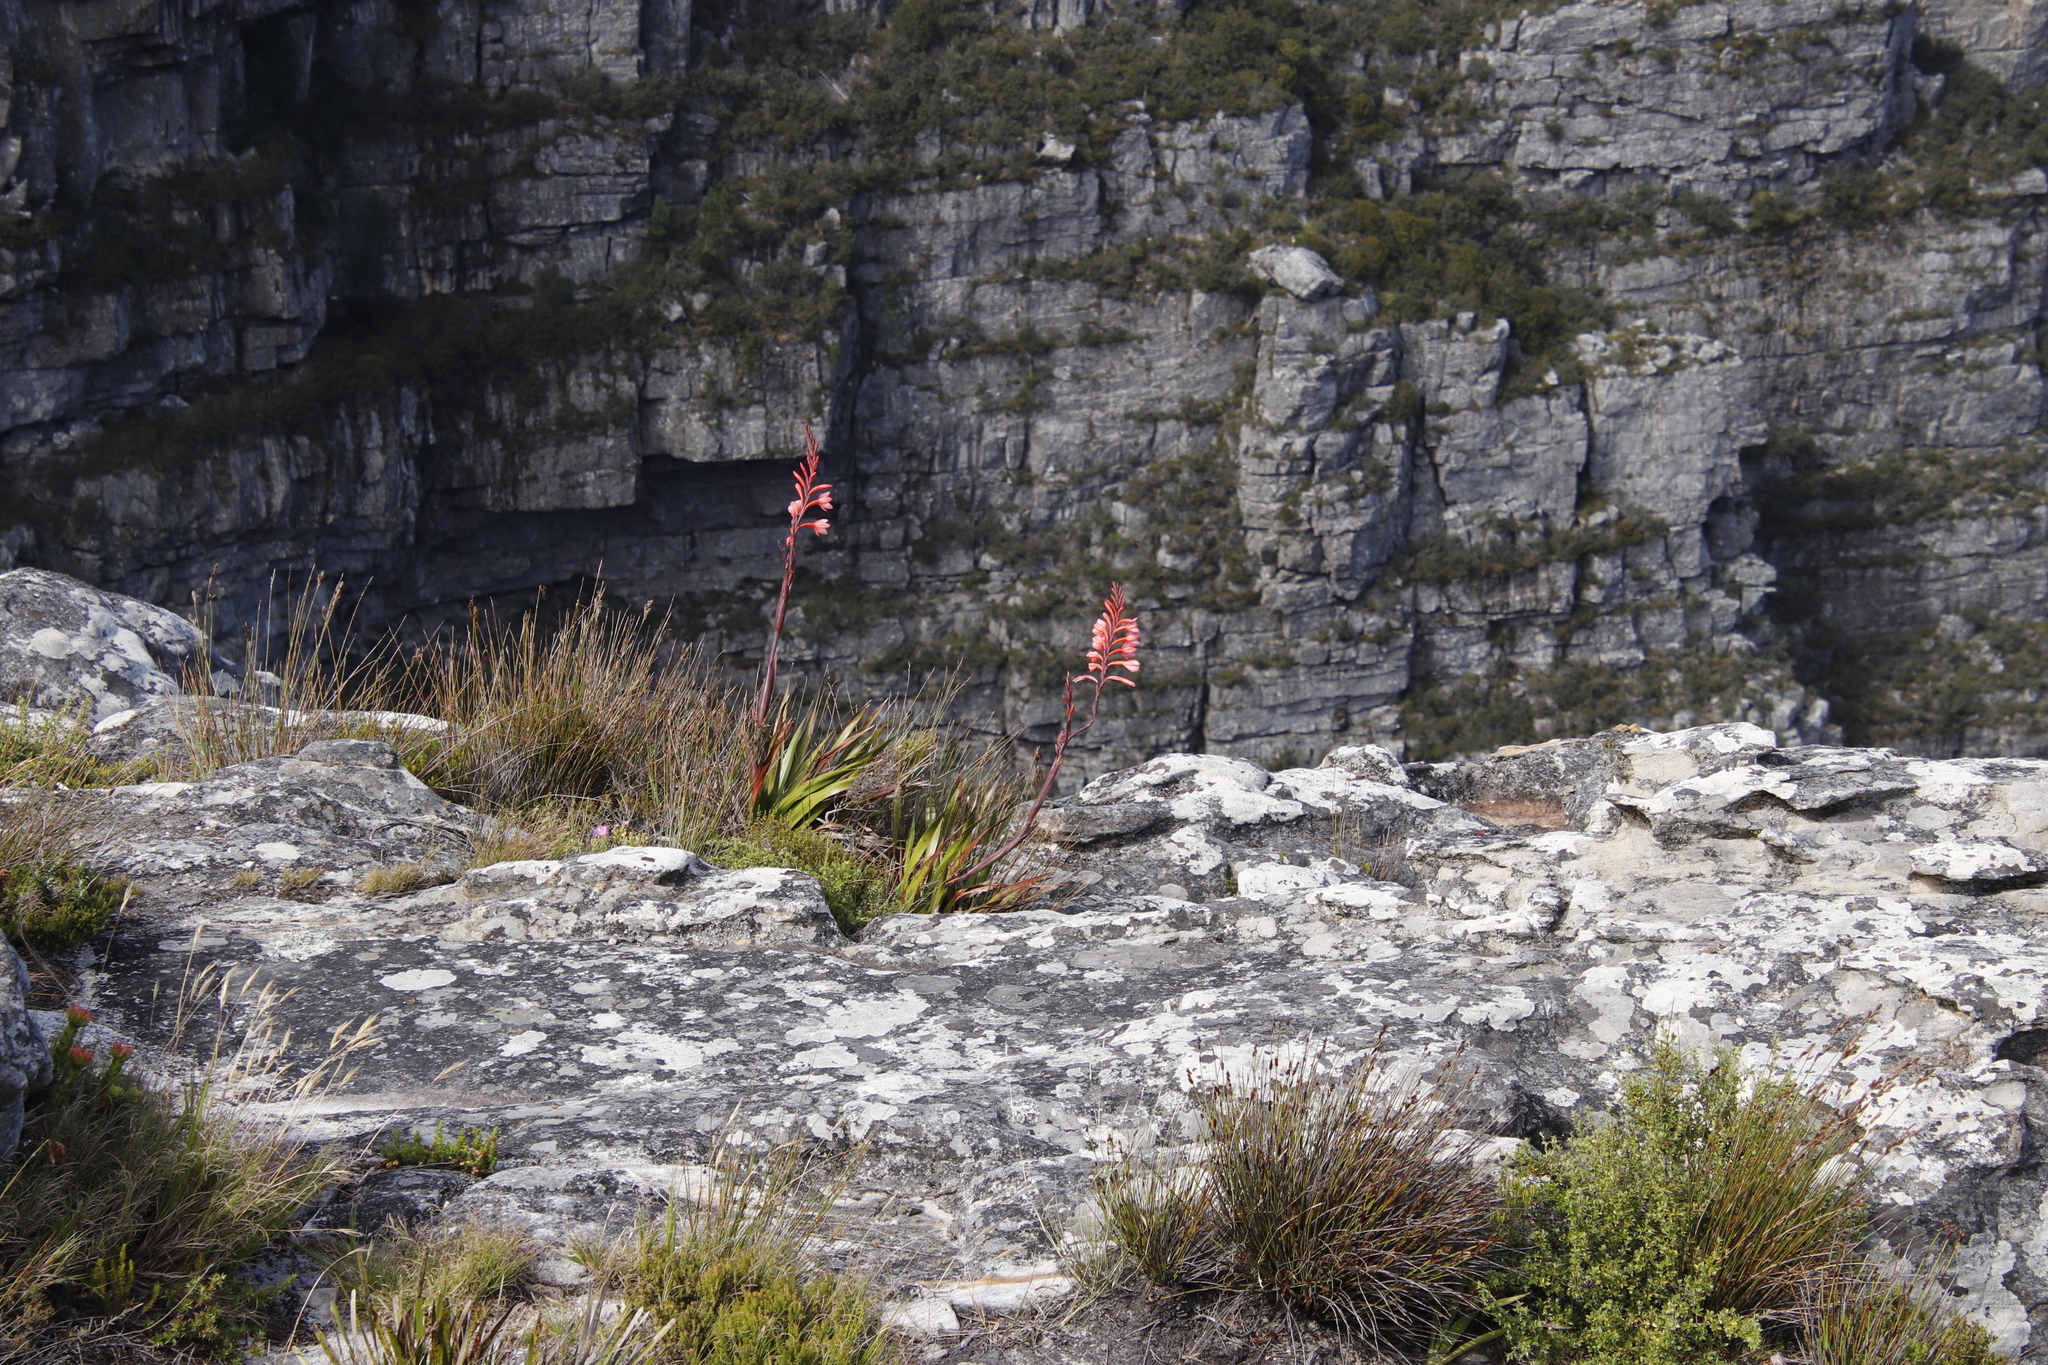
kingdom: Plantae
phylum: Tracheophyta
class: Liliopsida
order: Asparagales
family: Iridaceae
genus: Watsonia
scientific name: Watsonia tabularis
